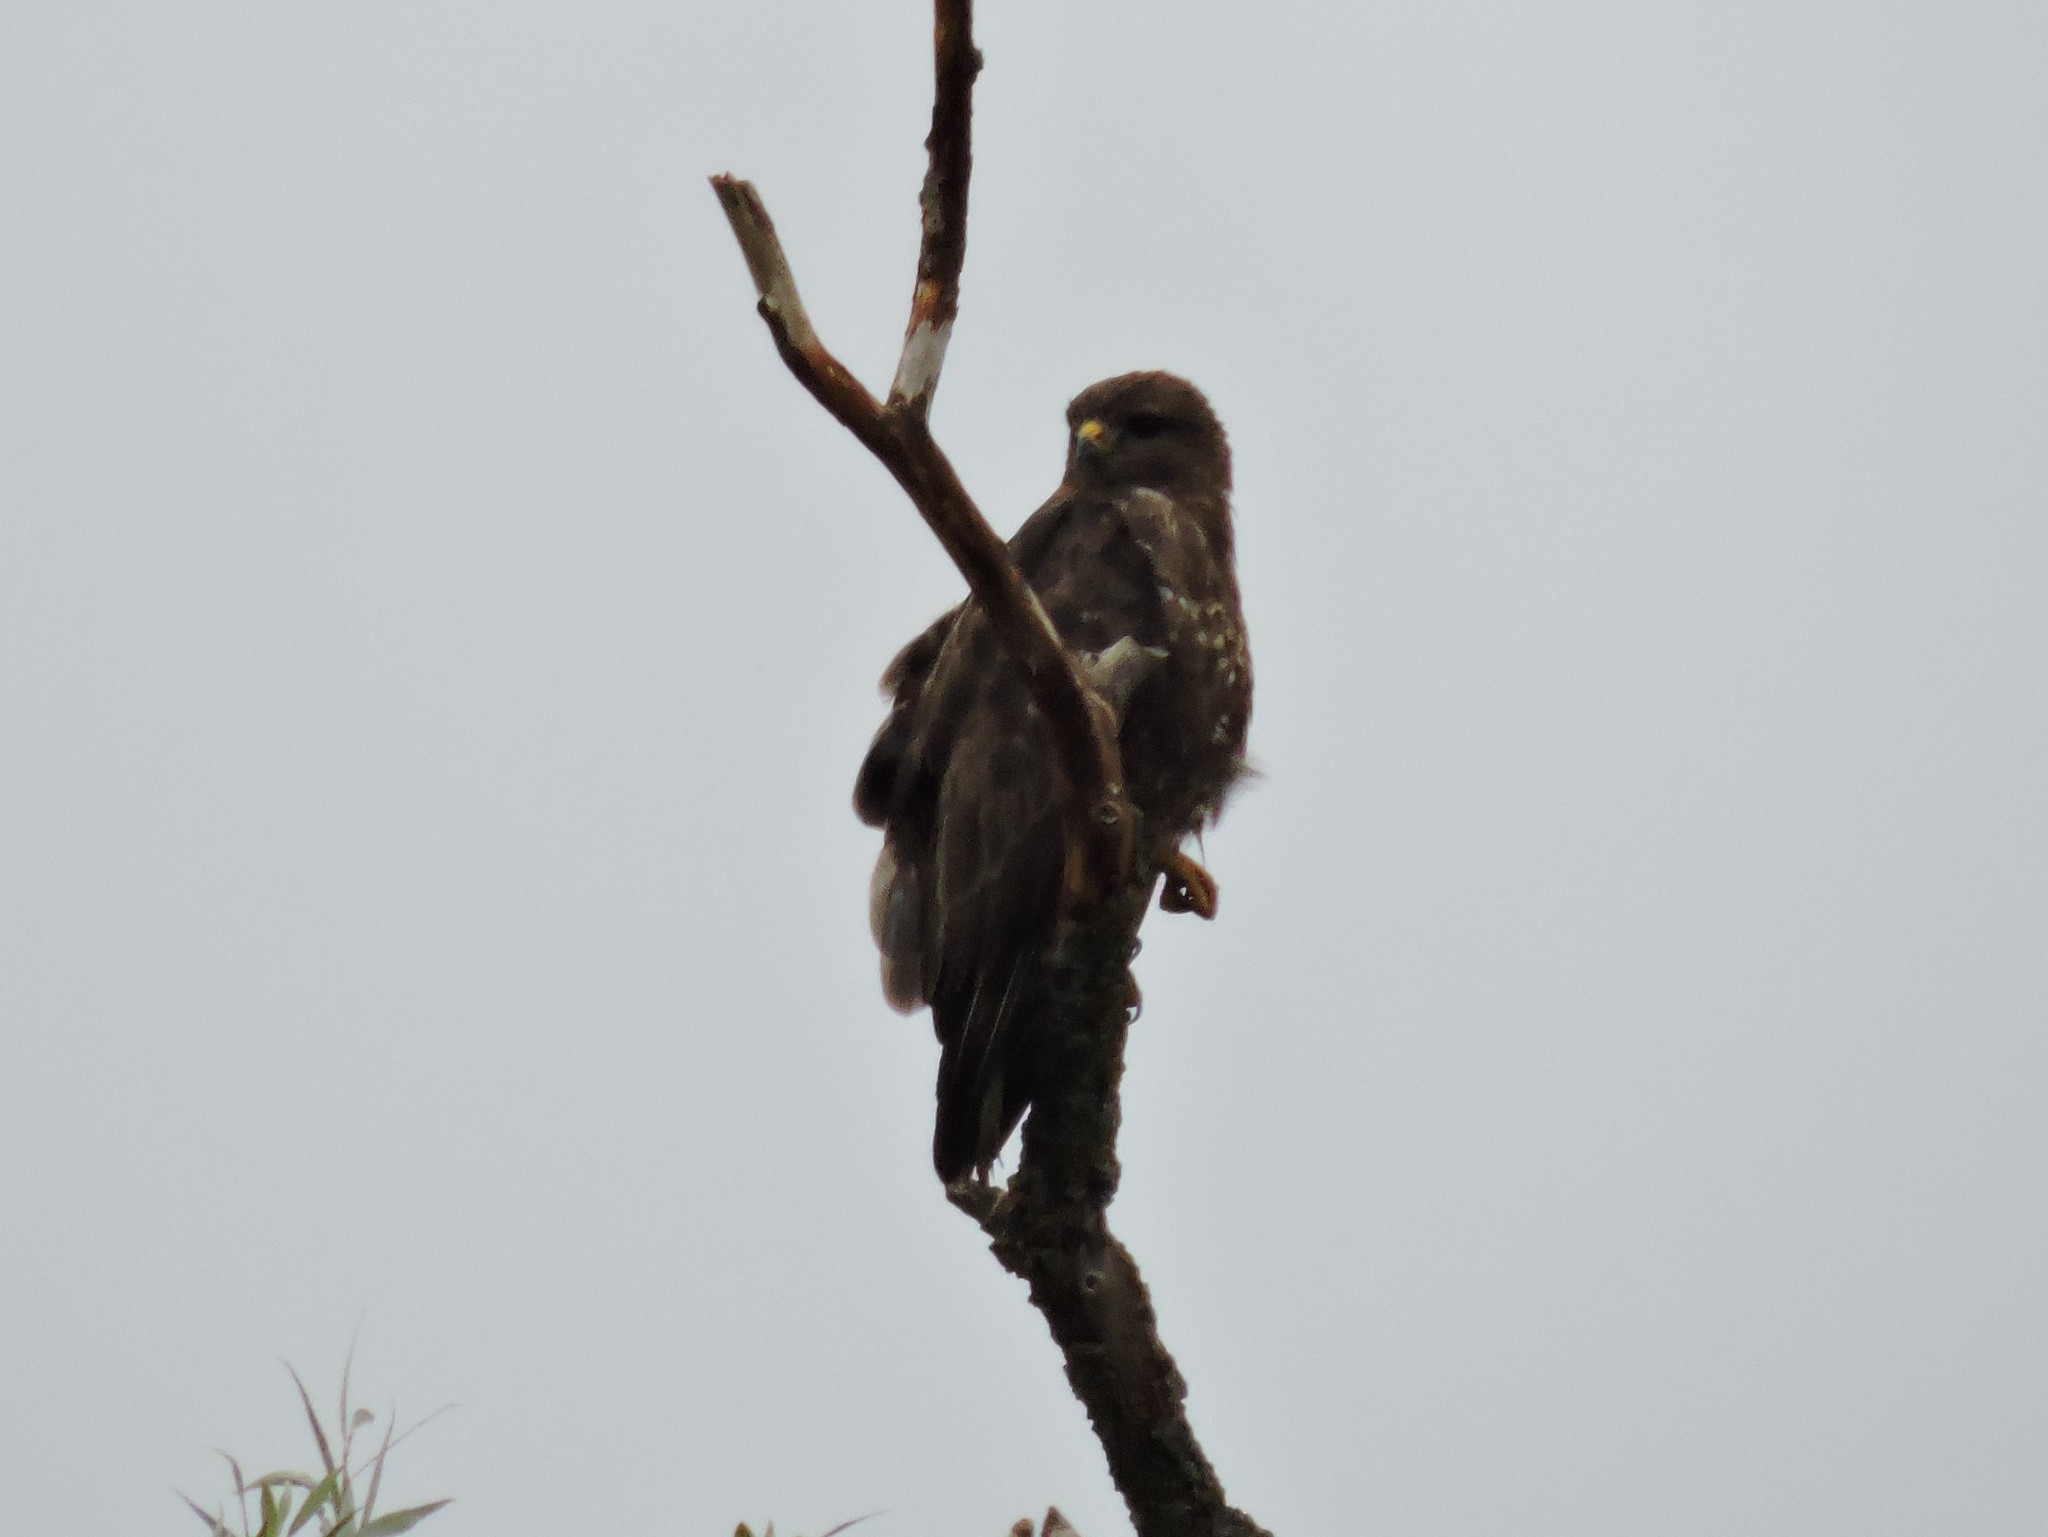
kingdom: Animalia
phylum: Chordata
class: Aves
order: Accipitriformes
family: Accipitridae
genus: Buteo
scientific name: Buteo buteo
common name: Common buzzard
